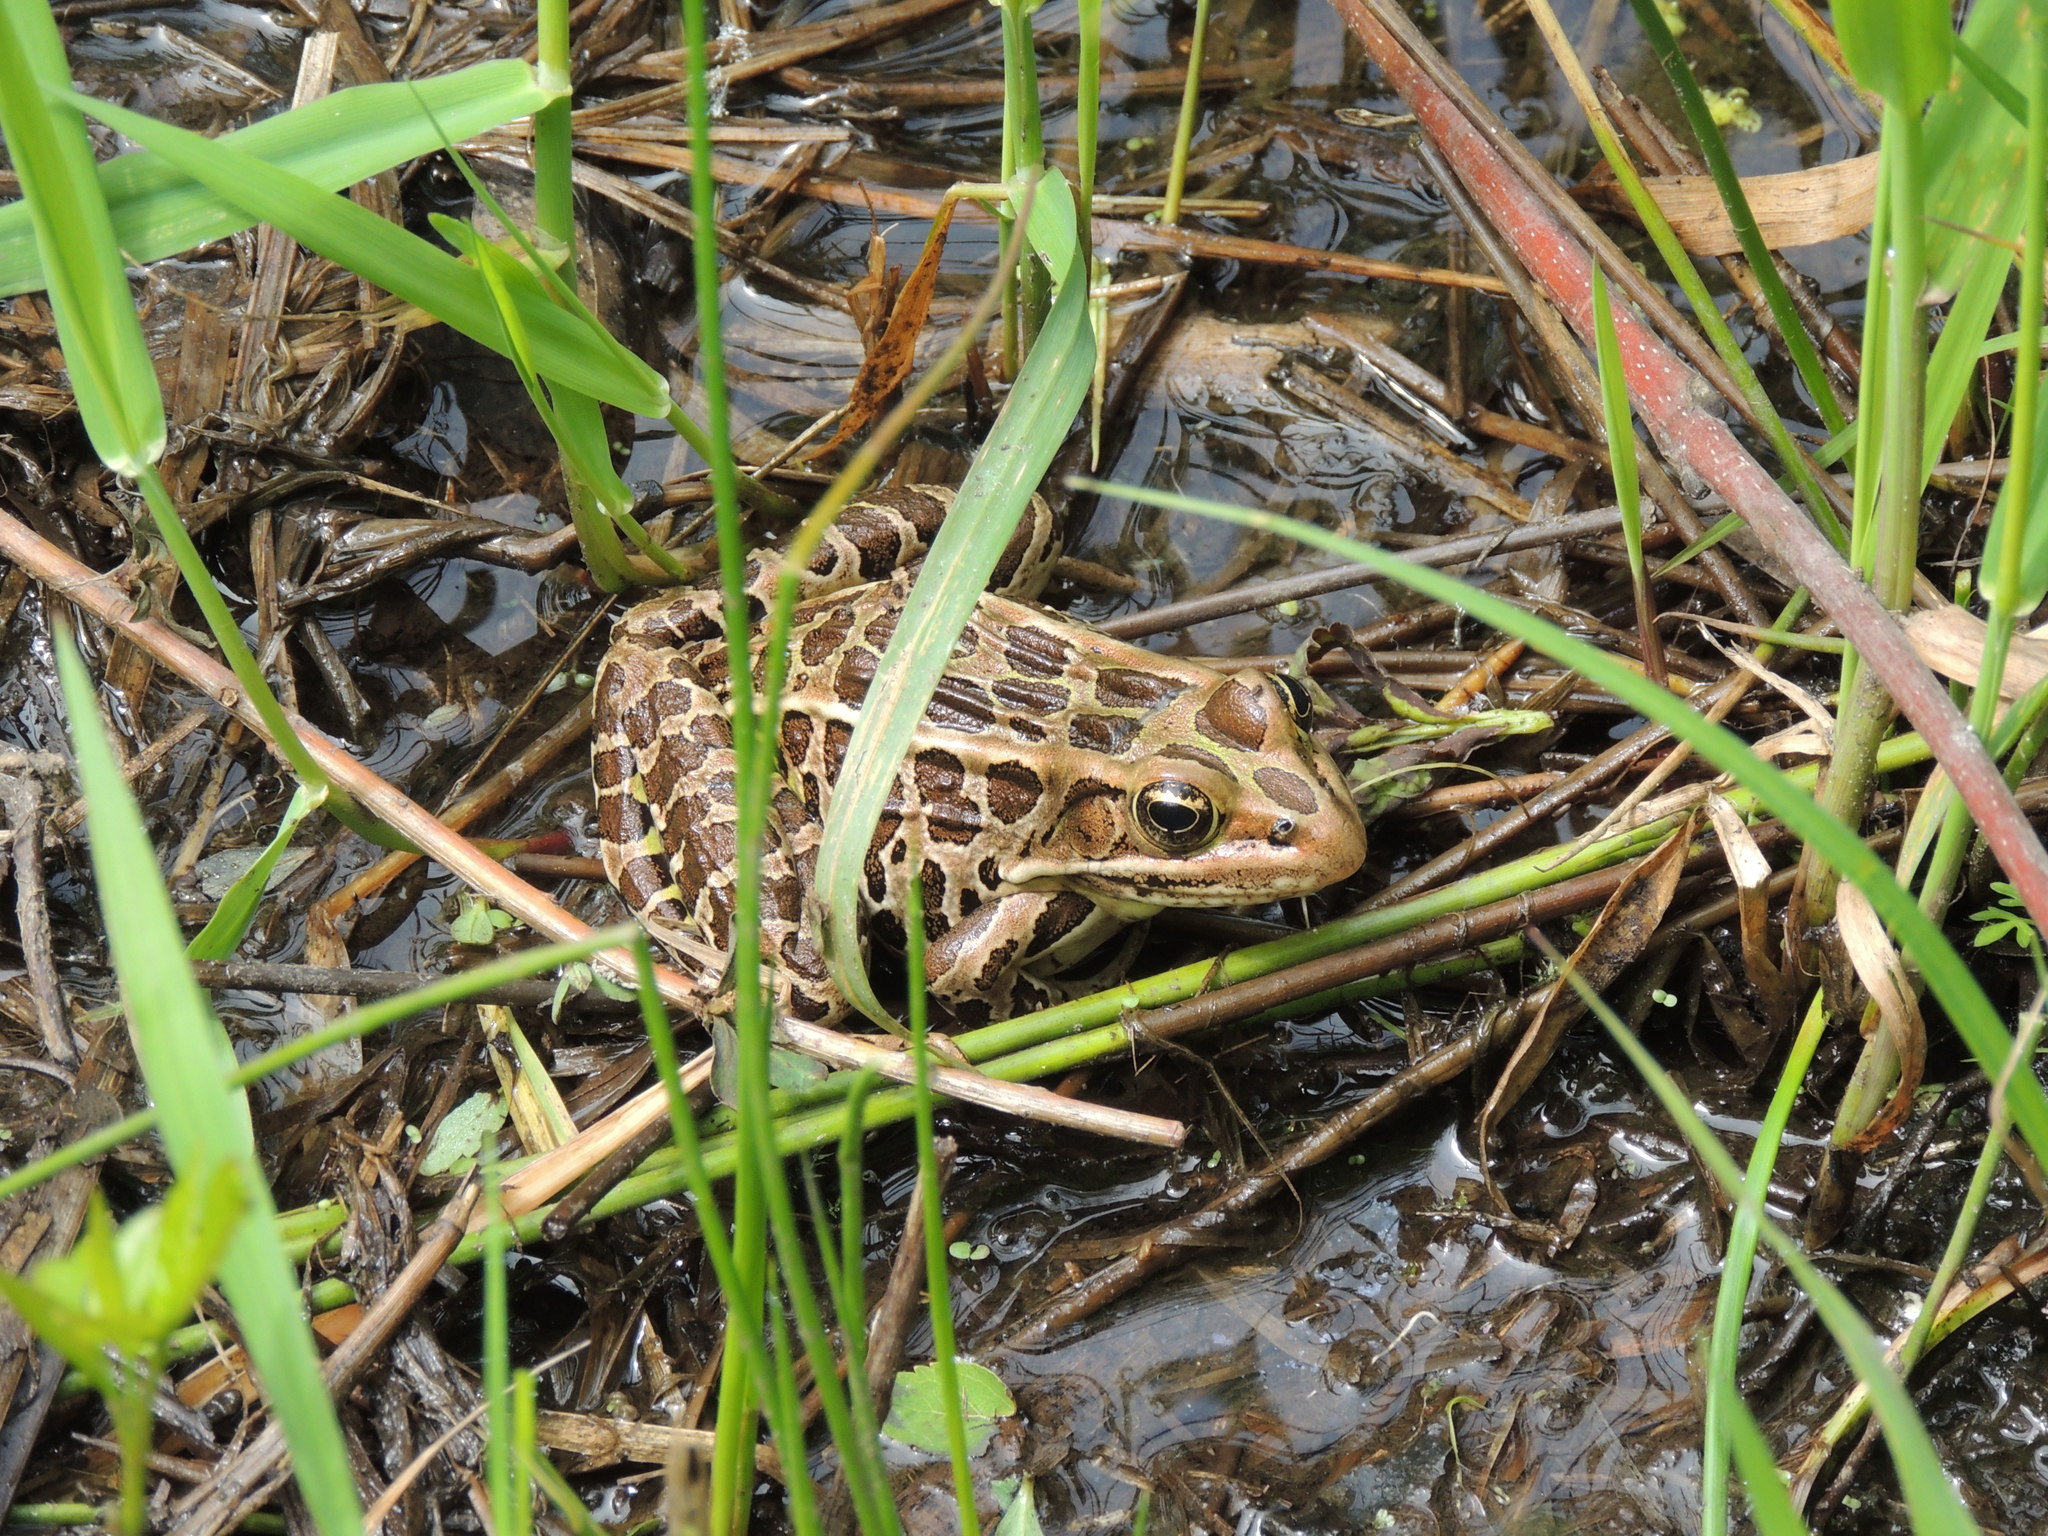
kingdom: Animalia
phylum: Chordata
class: Amphibia
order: Anura
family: Ranidae
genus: Lithobates
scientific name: Lithobates pipiens
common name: Northern leopard frog
